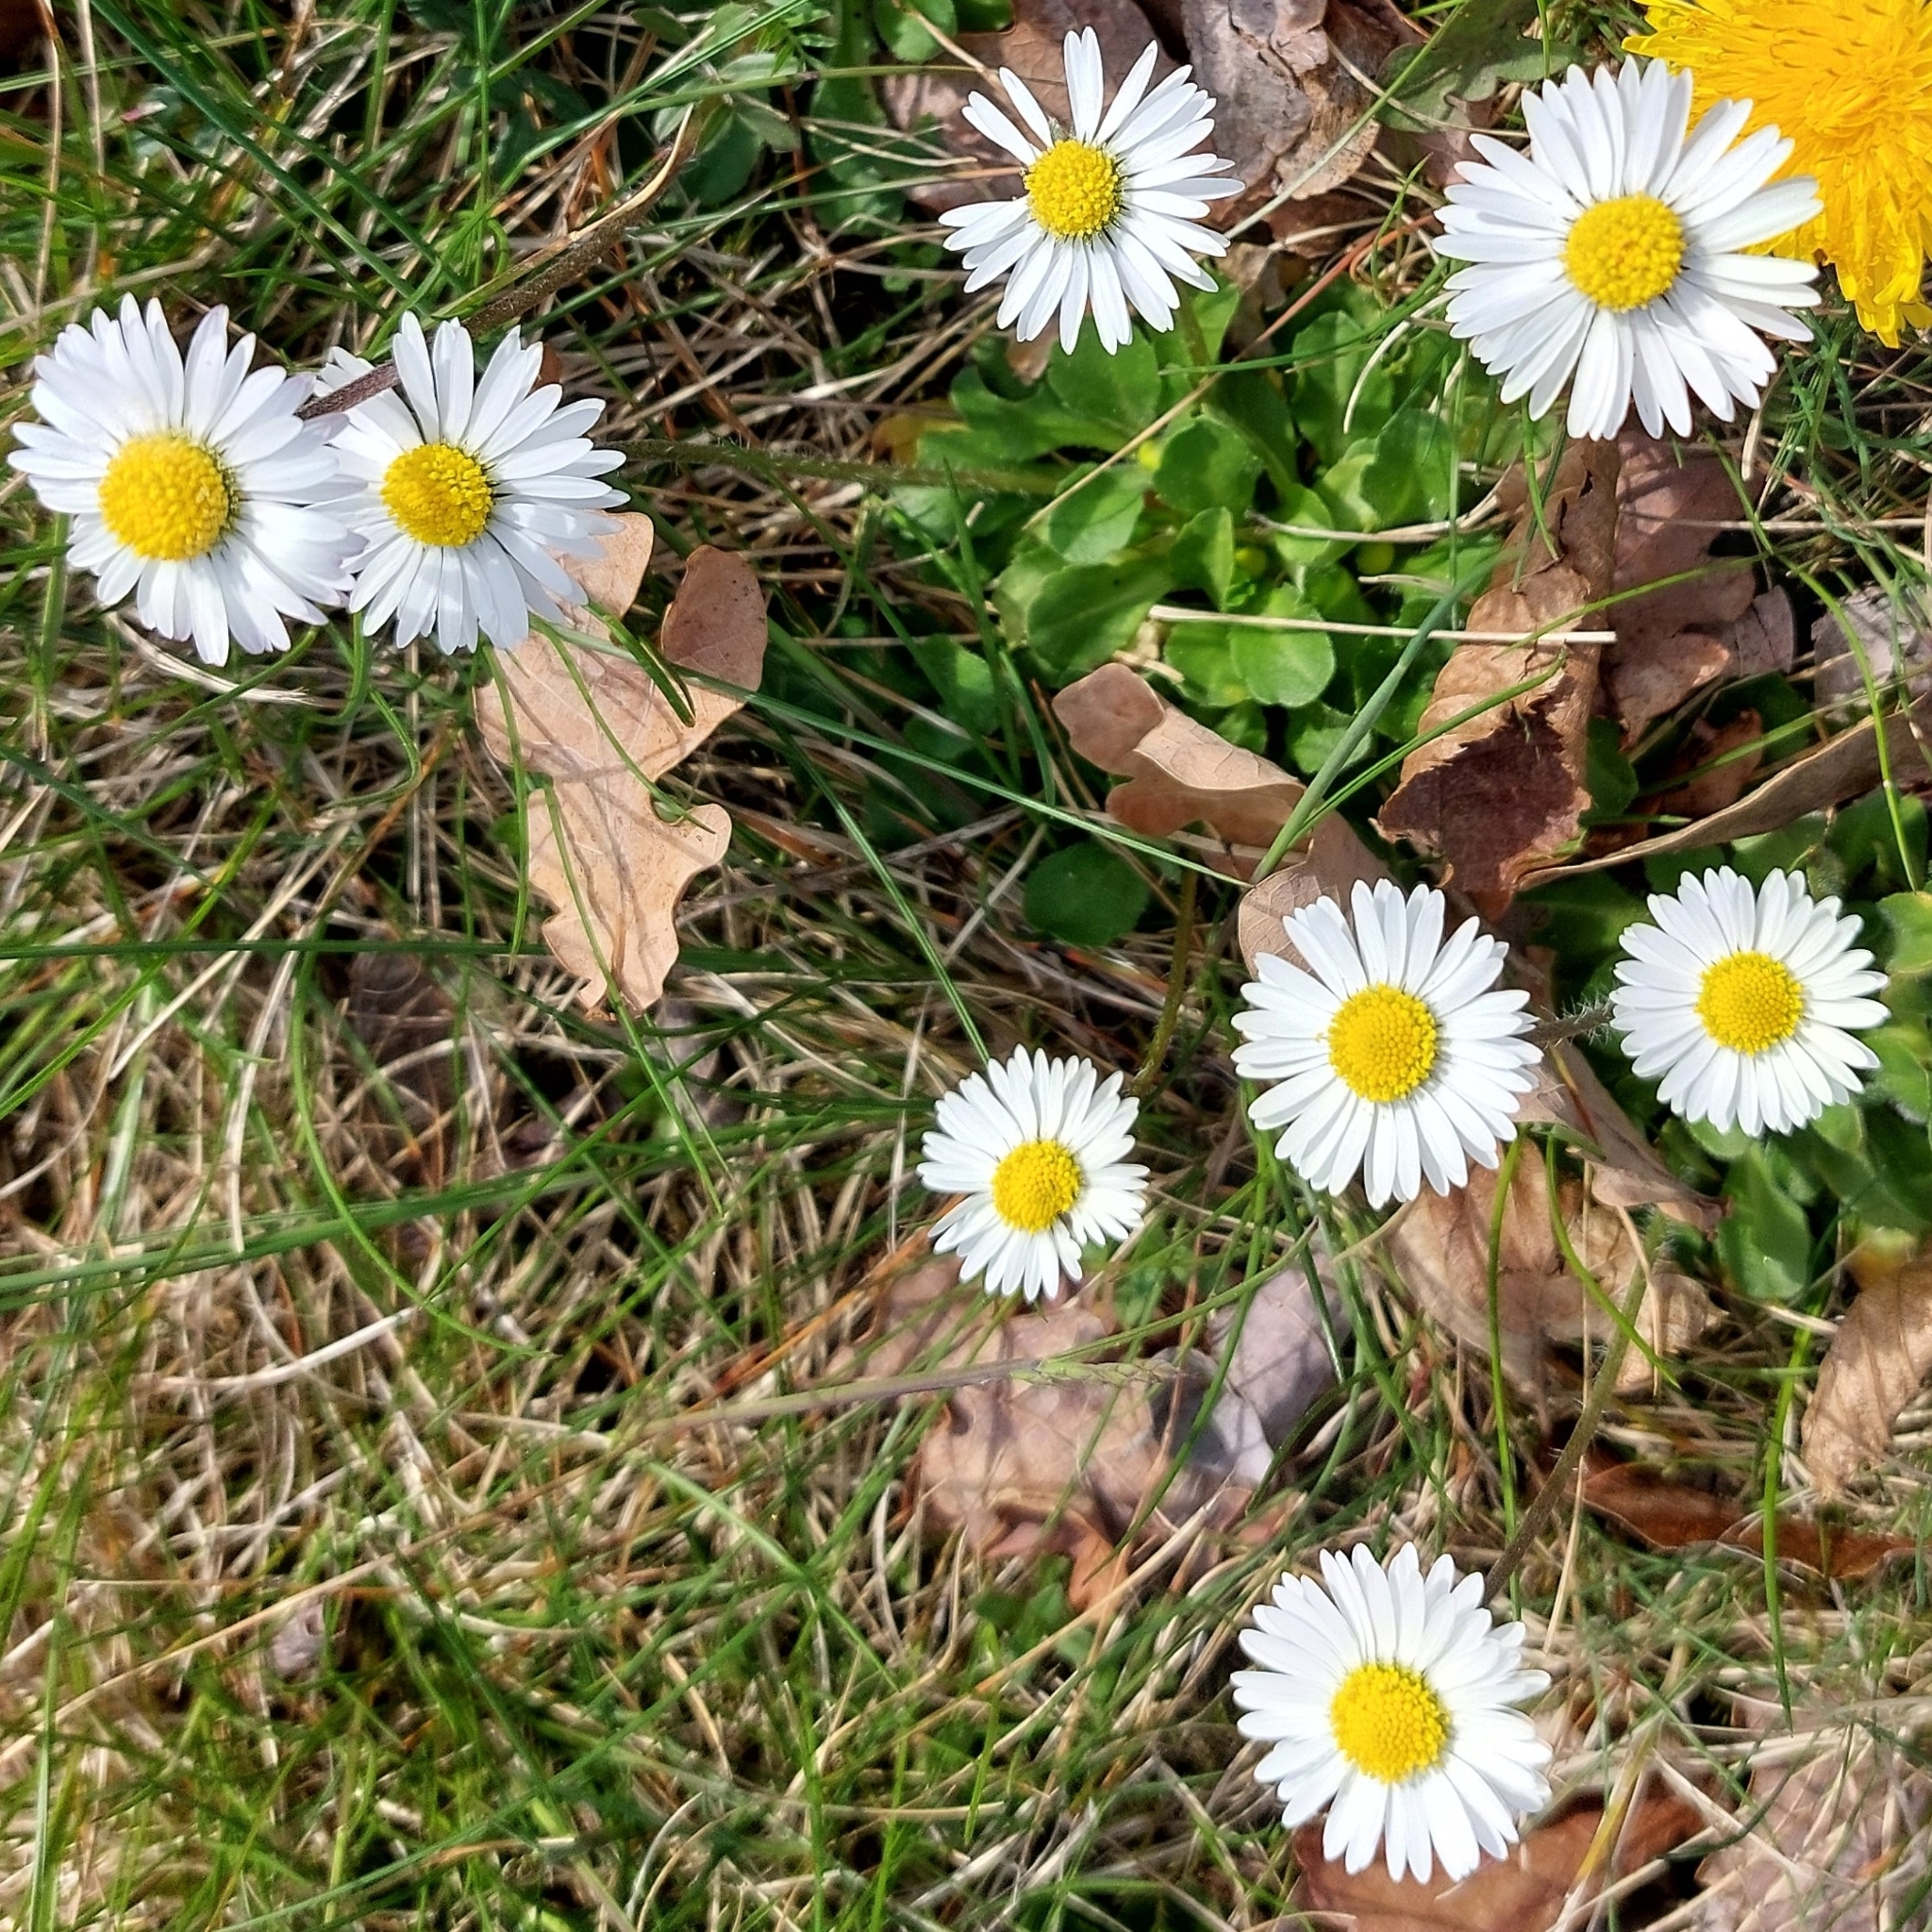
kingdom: Plantae
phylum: Tracheophyta
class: Magnoliopsida
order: Asterales
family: Asteraceae
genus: Bellis
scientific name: Bellis perennis
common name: Lawndaisy
